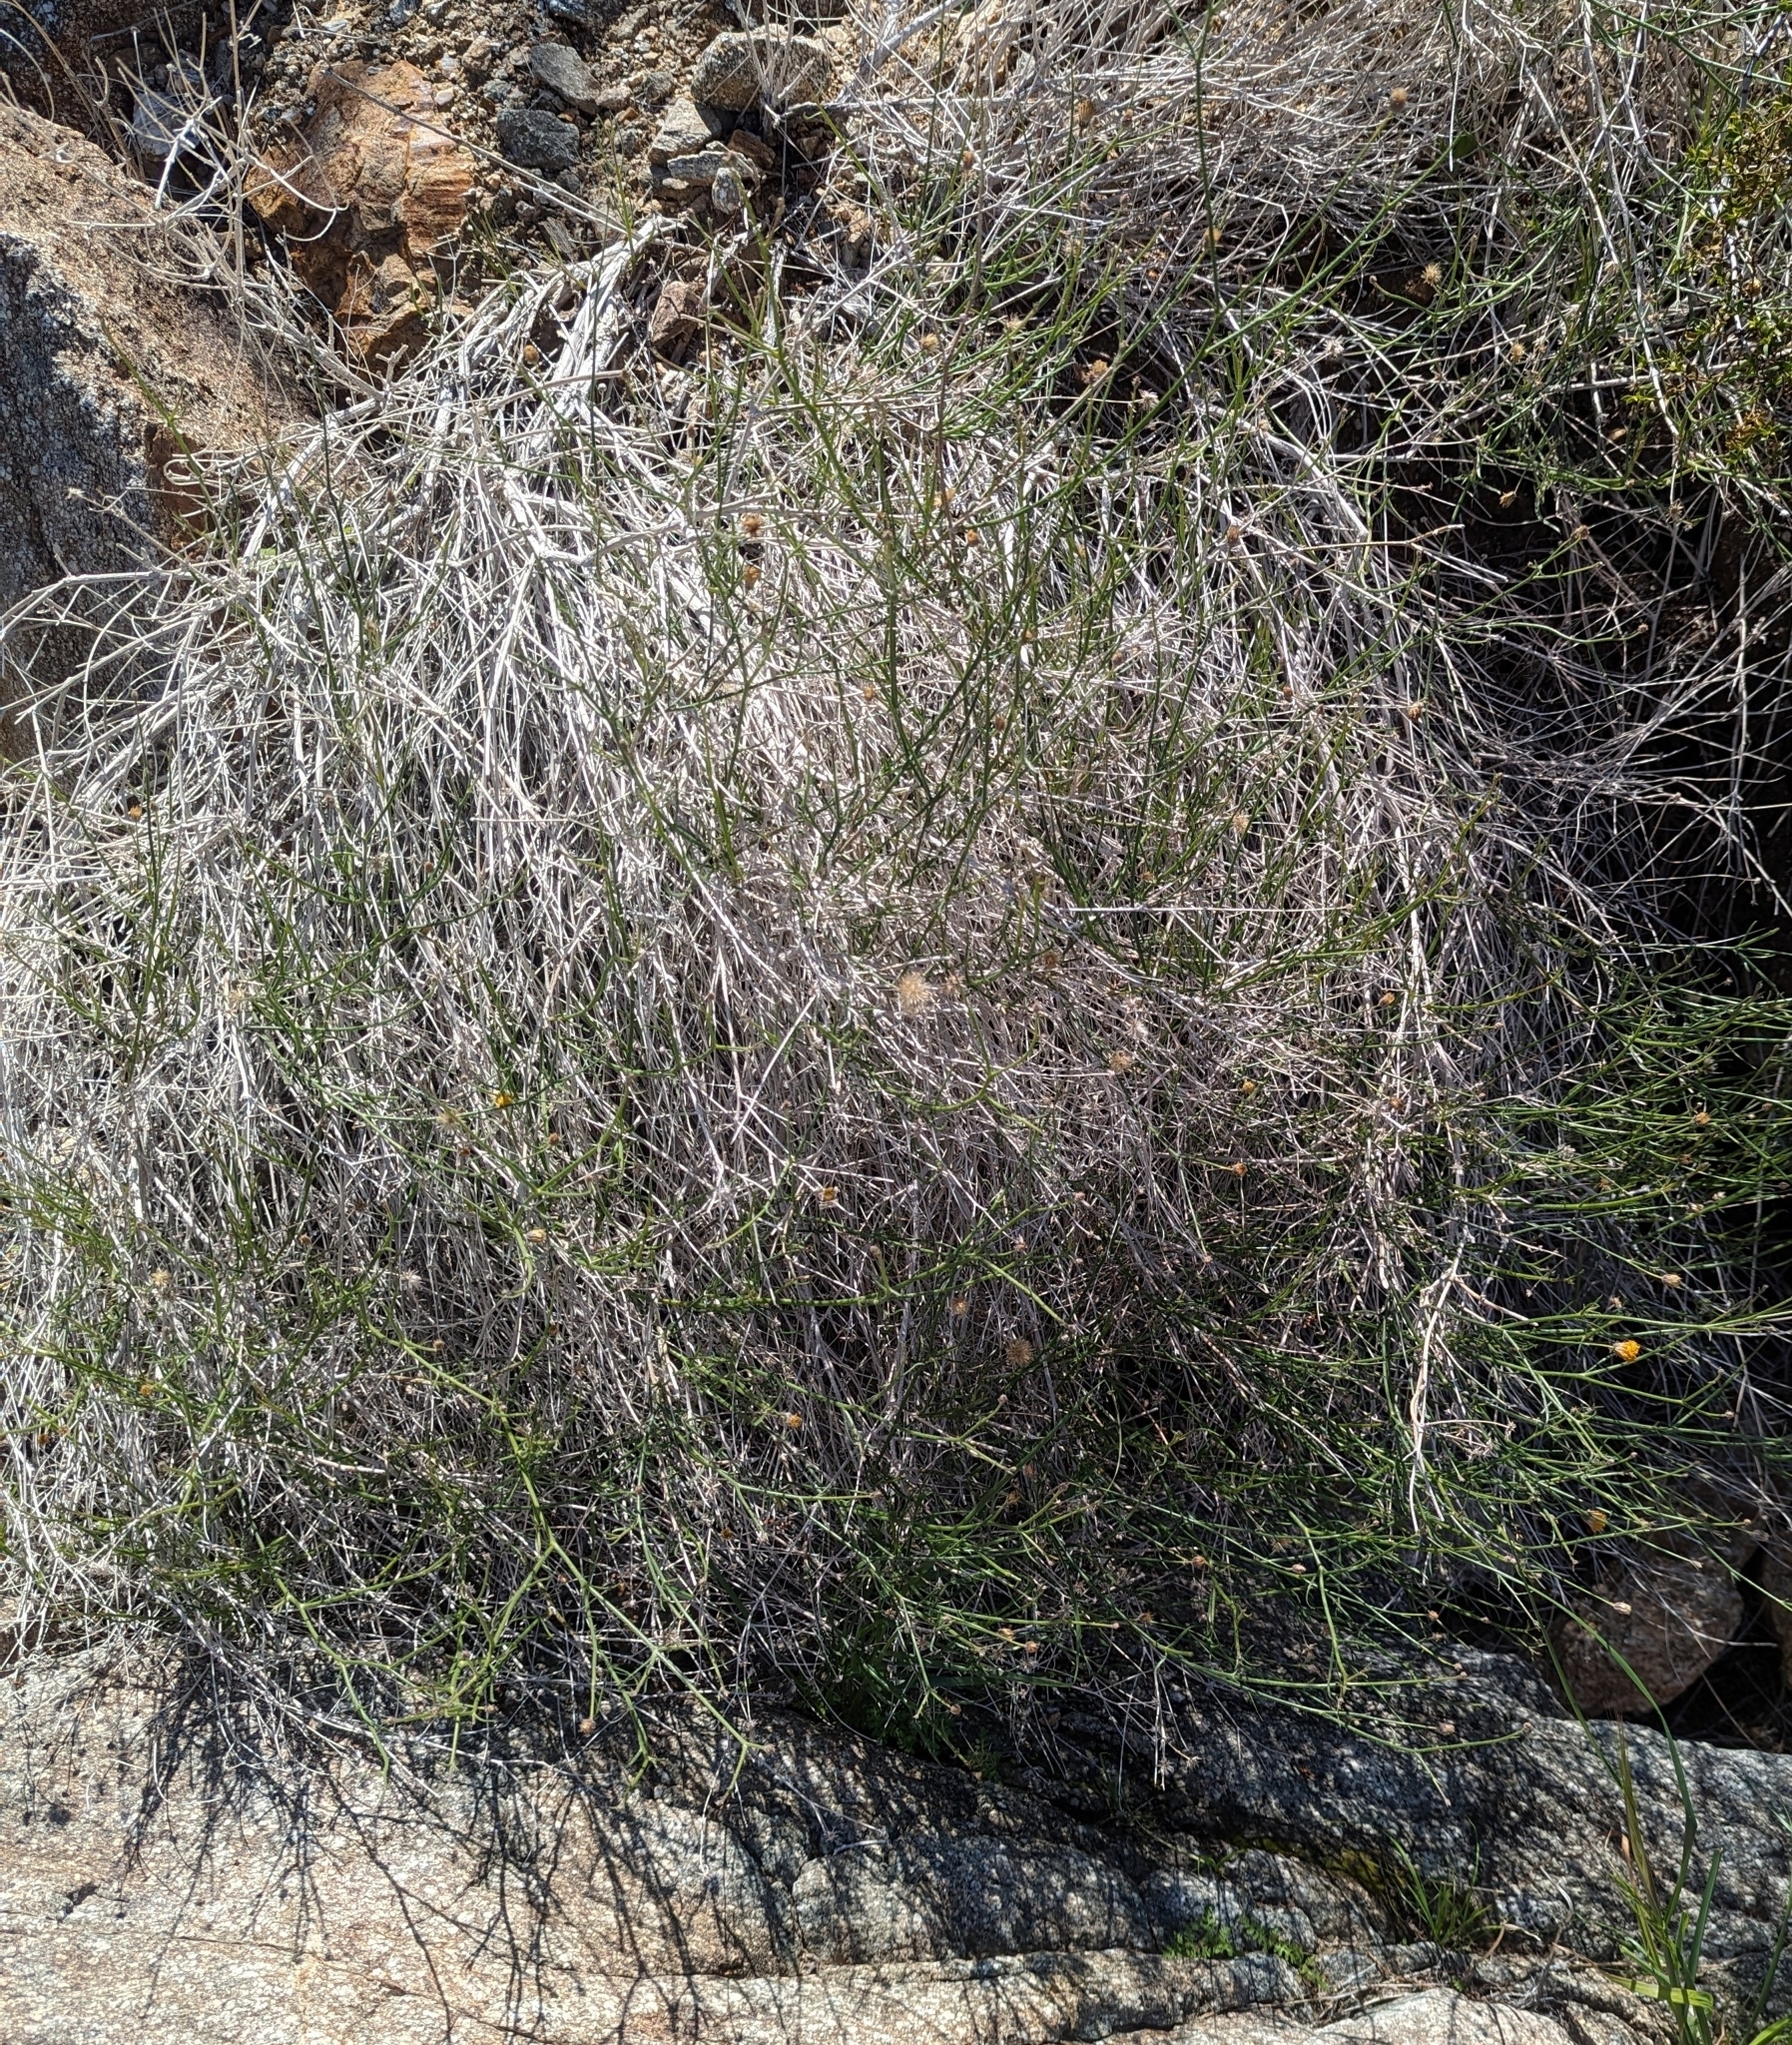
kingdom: Plantae
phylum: Tracheophyta
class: Magnoliopsida
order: Asterales
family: Asteraceae
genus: Bebbia
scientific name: Bebbia juncea
